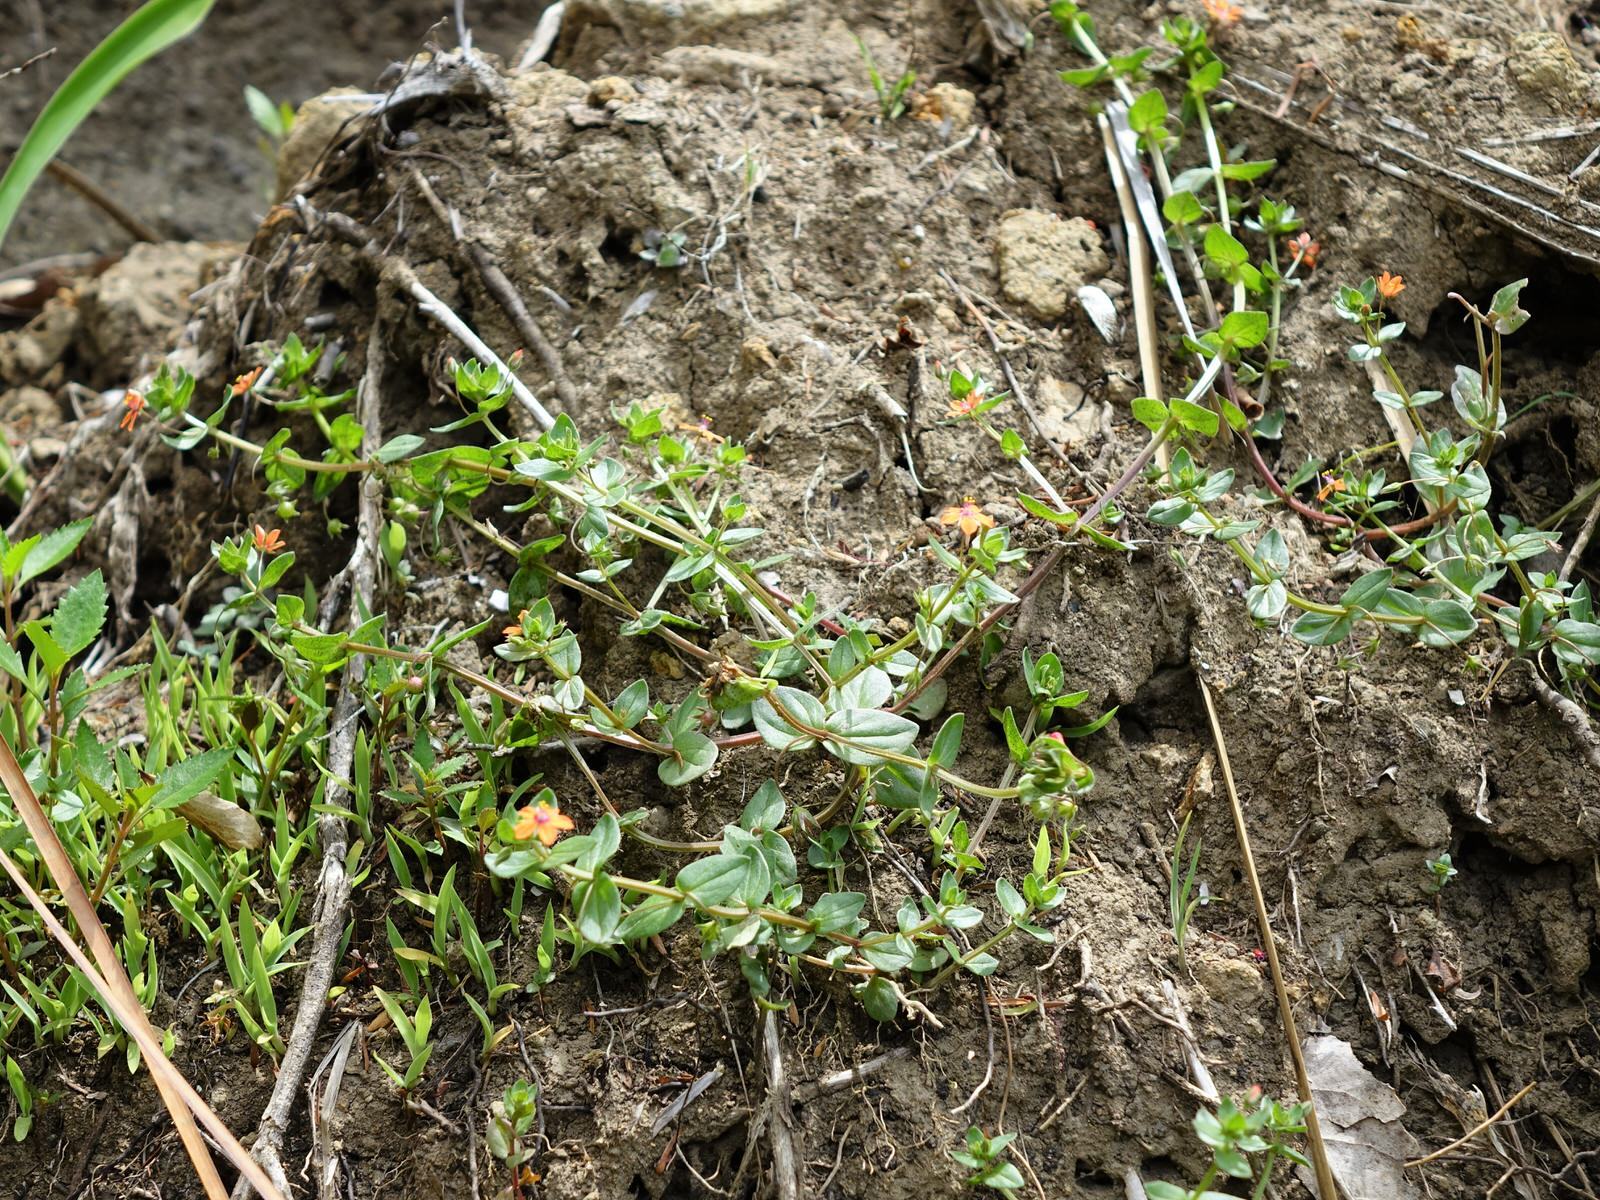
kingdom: Plantae
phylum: Tracheophyta
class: Magnoliopsida
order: Ericales
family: Primulaceae
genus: Lysimachia
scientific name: Lysimachia arvensis
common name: Scarlet pimpernel
